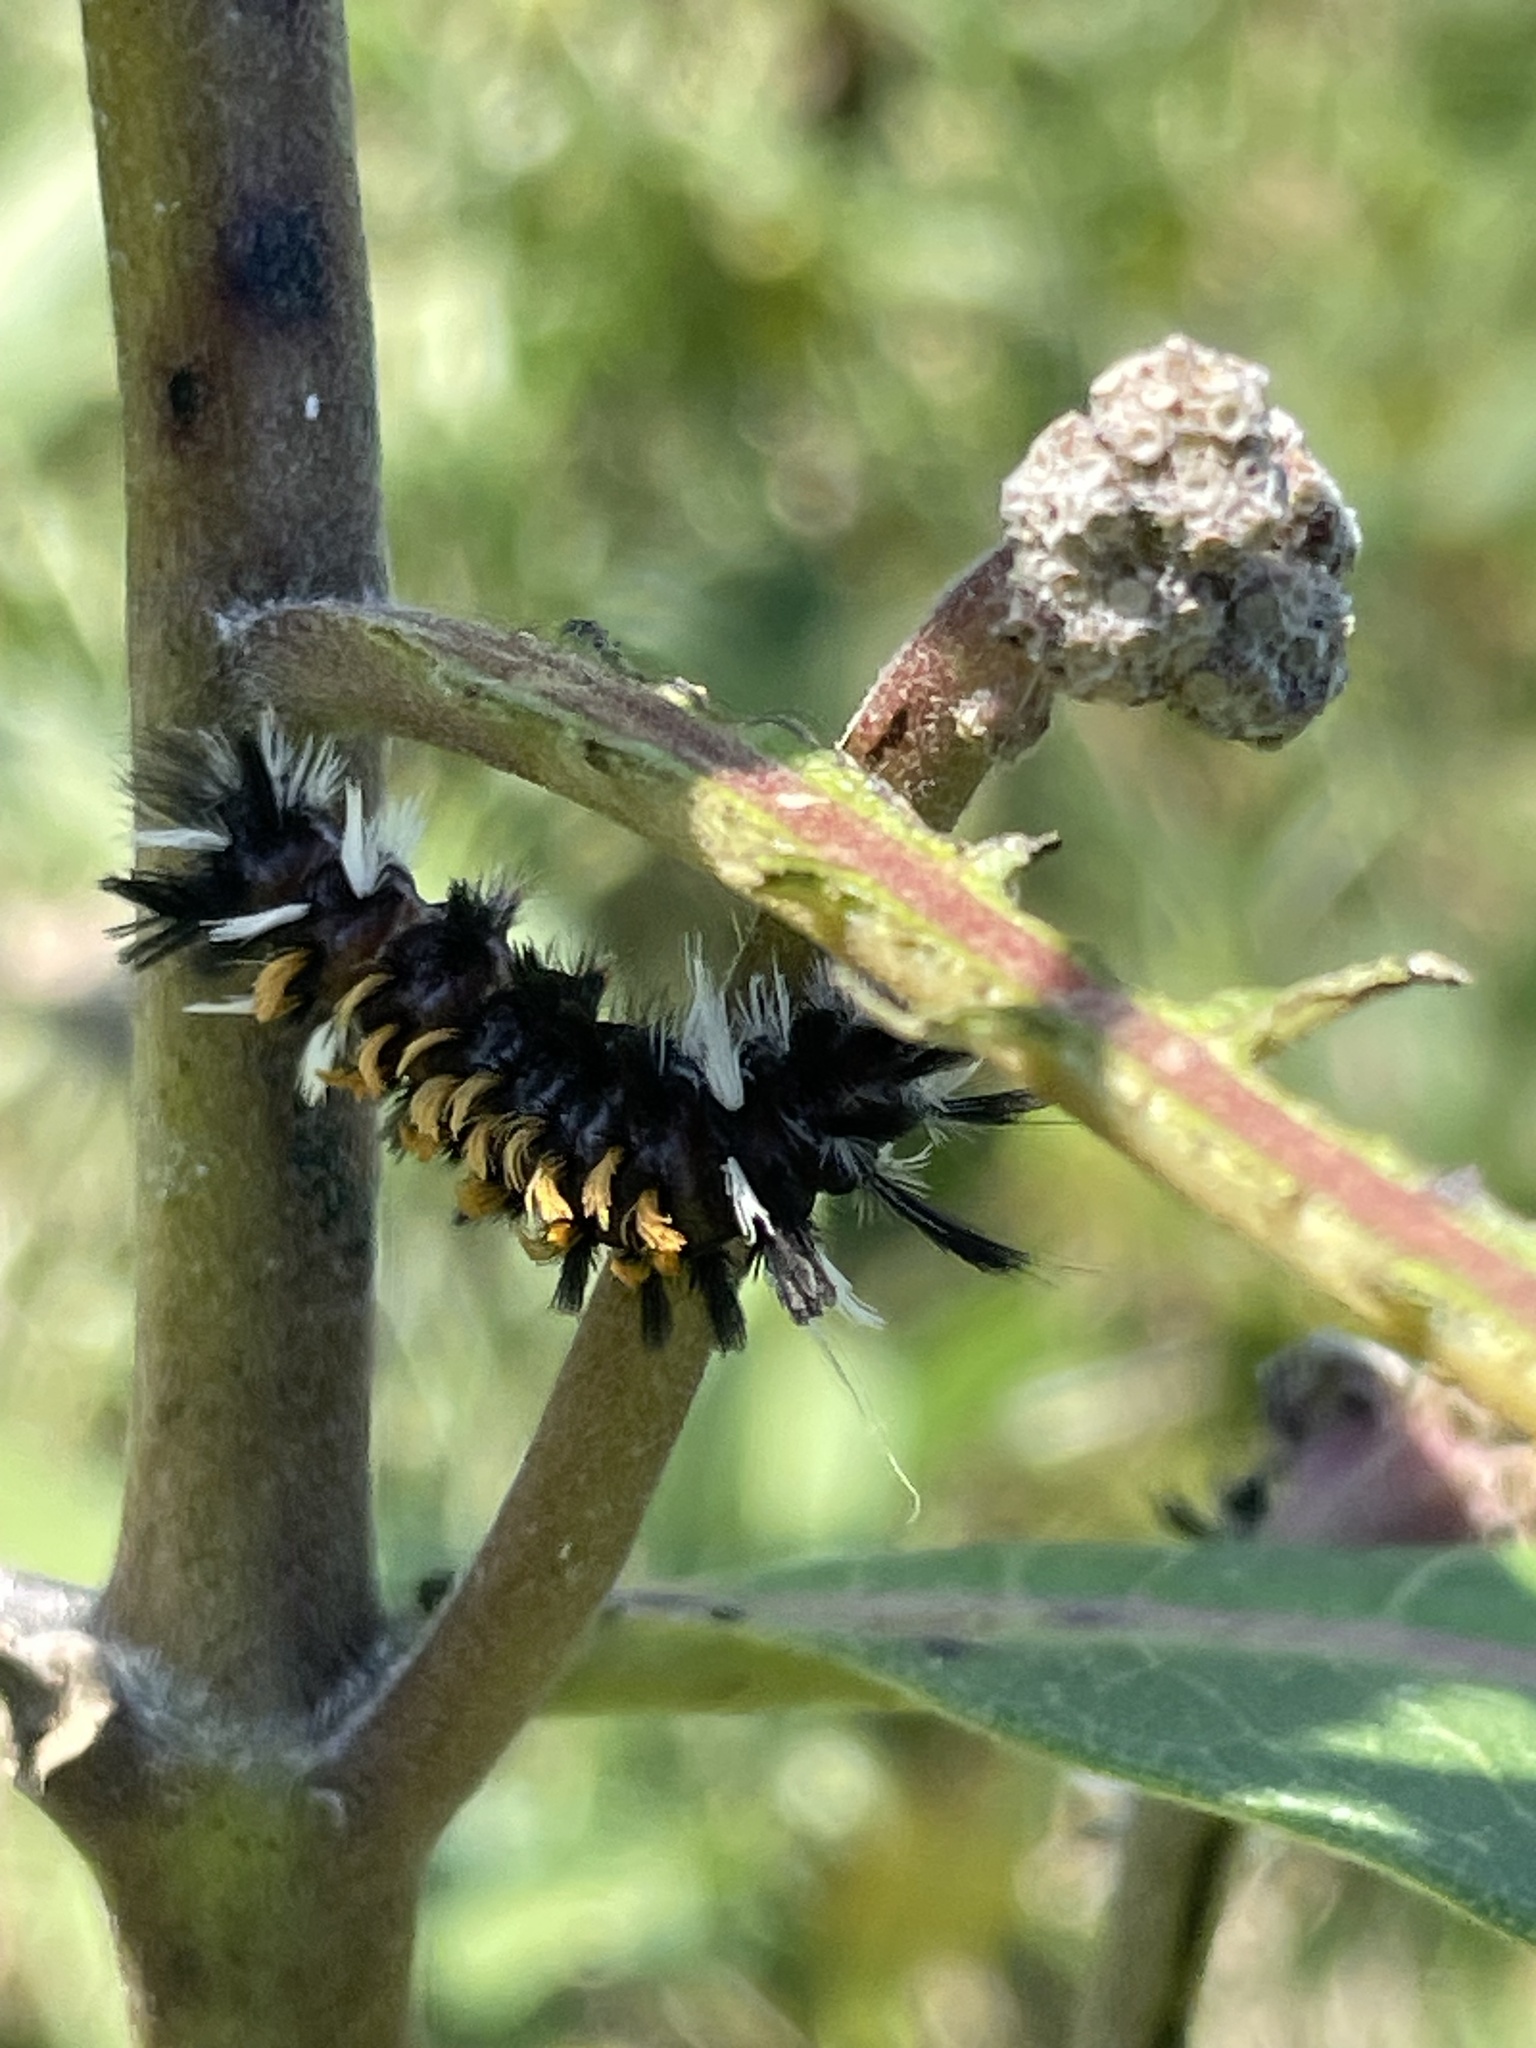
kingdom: Animalia
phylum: Arthropoda
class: Insecta
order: Lepidoptera
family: Erebidae
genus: Euchaetes
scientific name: Euchaetes egle
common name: Milkweed tussock moth
